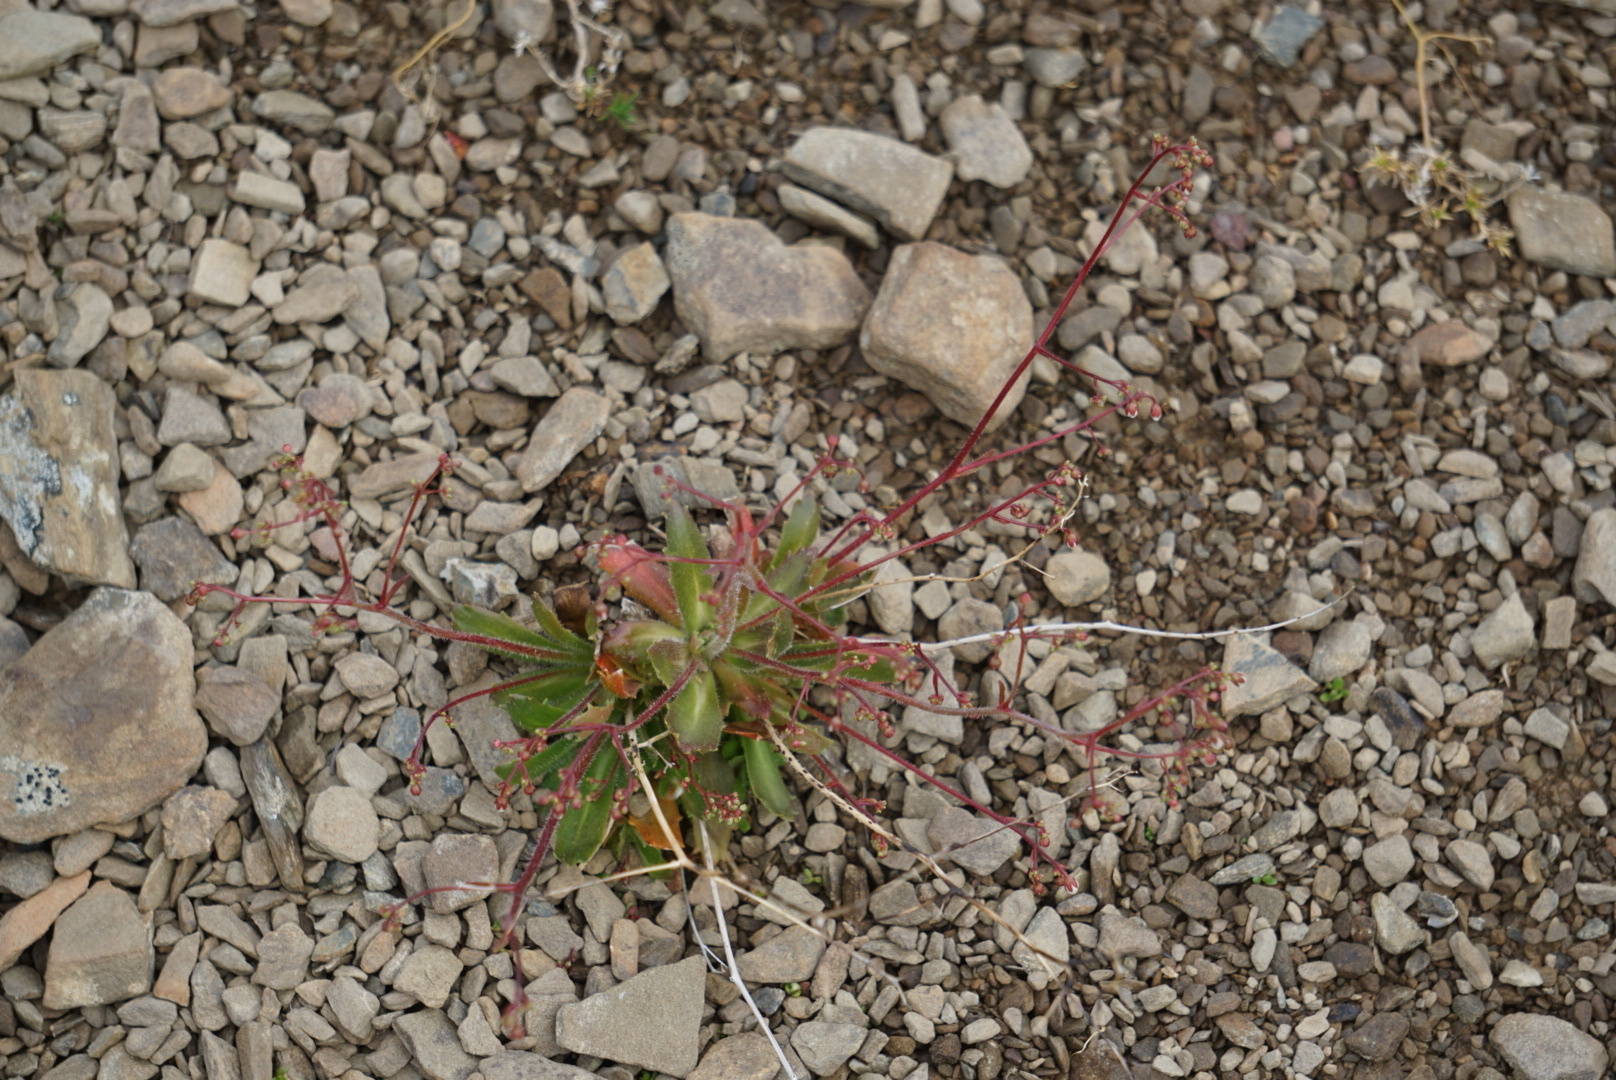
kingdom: Plantae
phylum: Tracheophyta
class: Magnoliopsida
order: Saxifragales
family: Saxifragaceae
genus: Micranthes
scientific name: Micranthes ferruginea
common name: Rusty saxifrage
